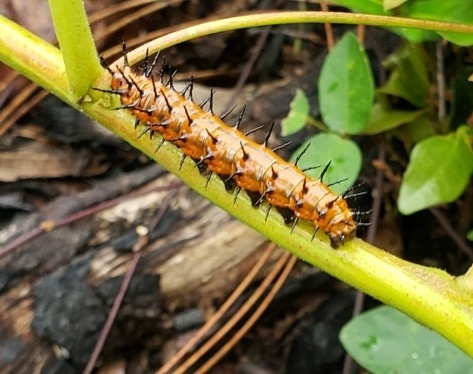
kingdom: Animalia
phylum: Arthropoda
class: Insecta
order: Lepidoptera
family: Nymphalidae
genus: Dione
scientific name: Dione vanillae
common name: Gulf fritillary
